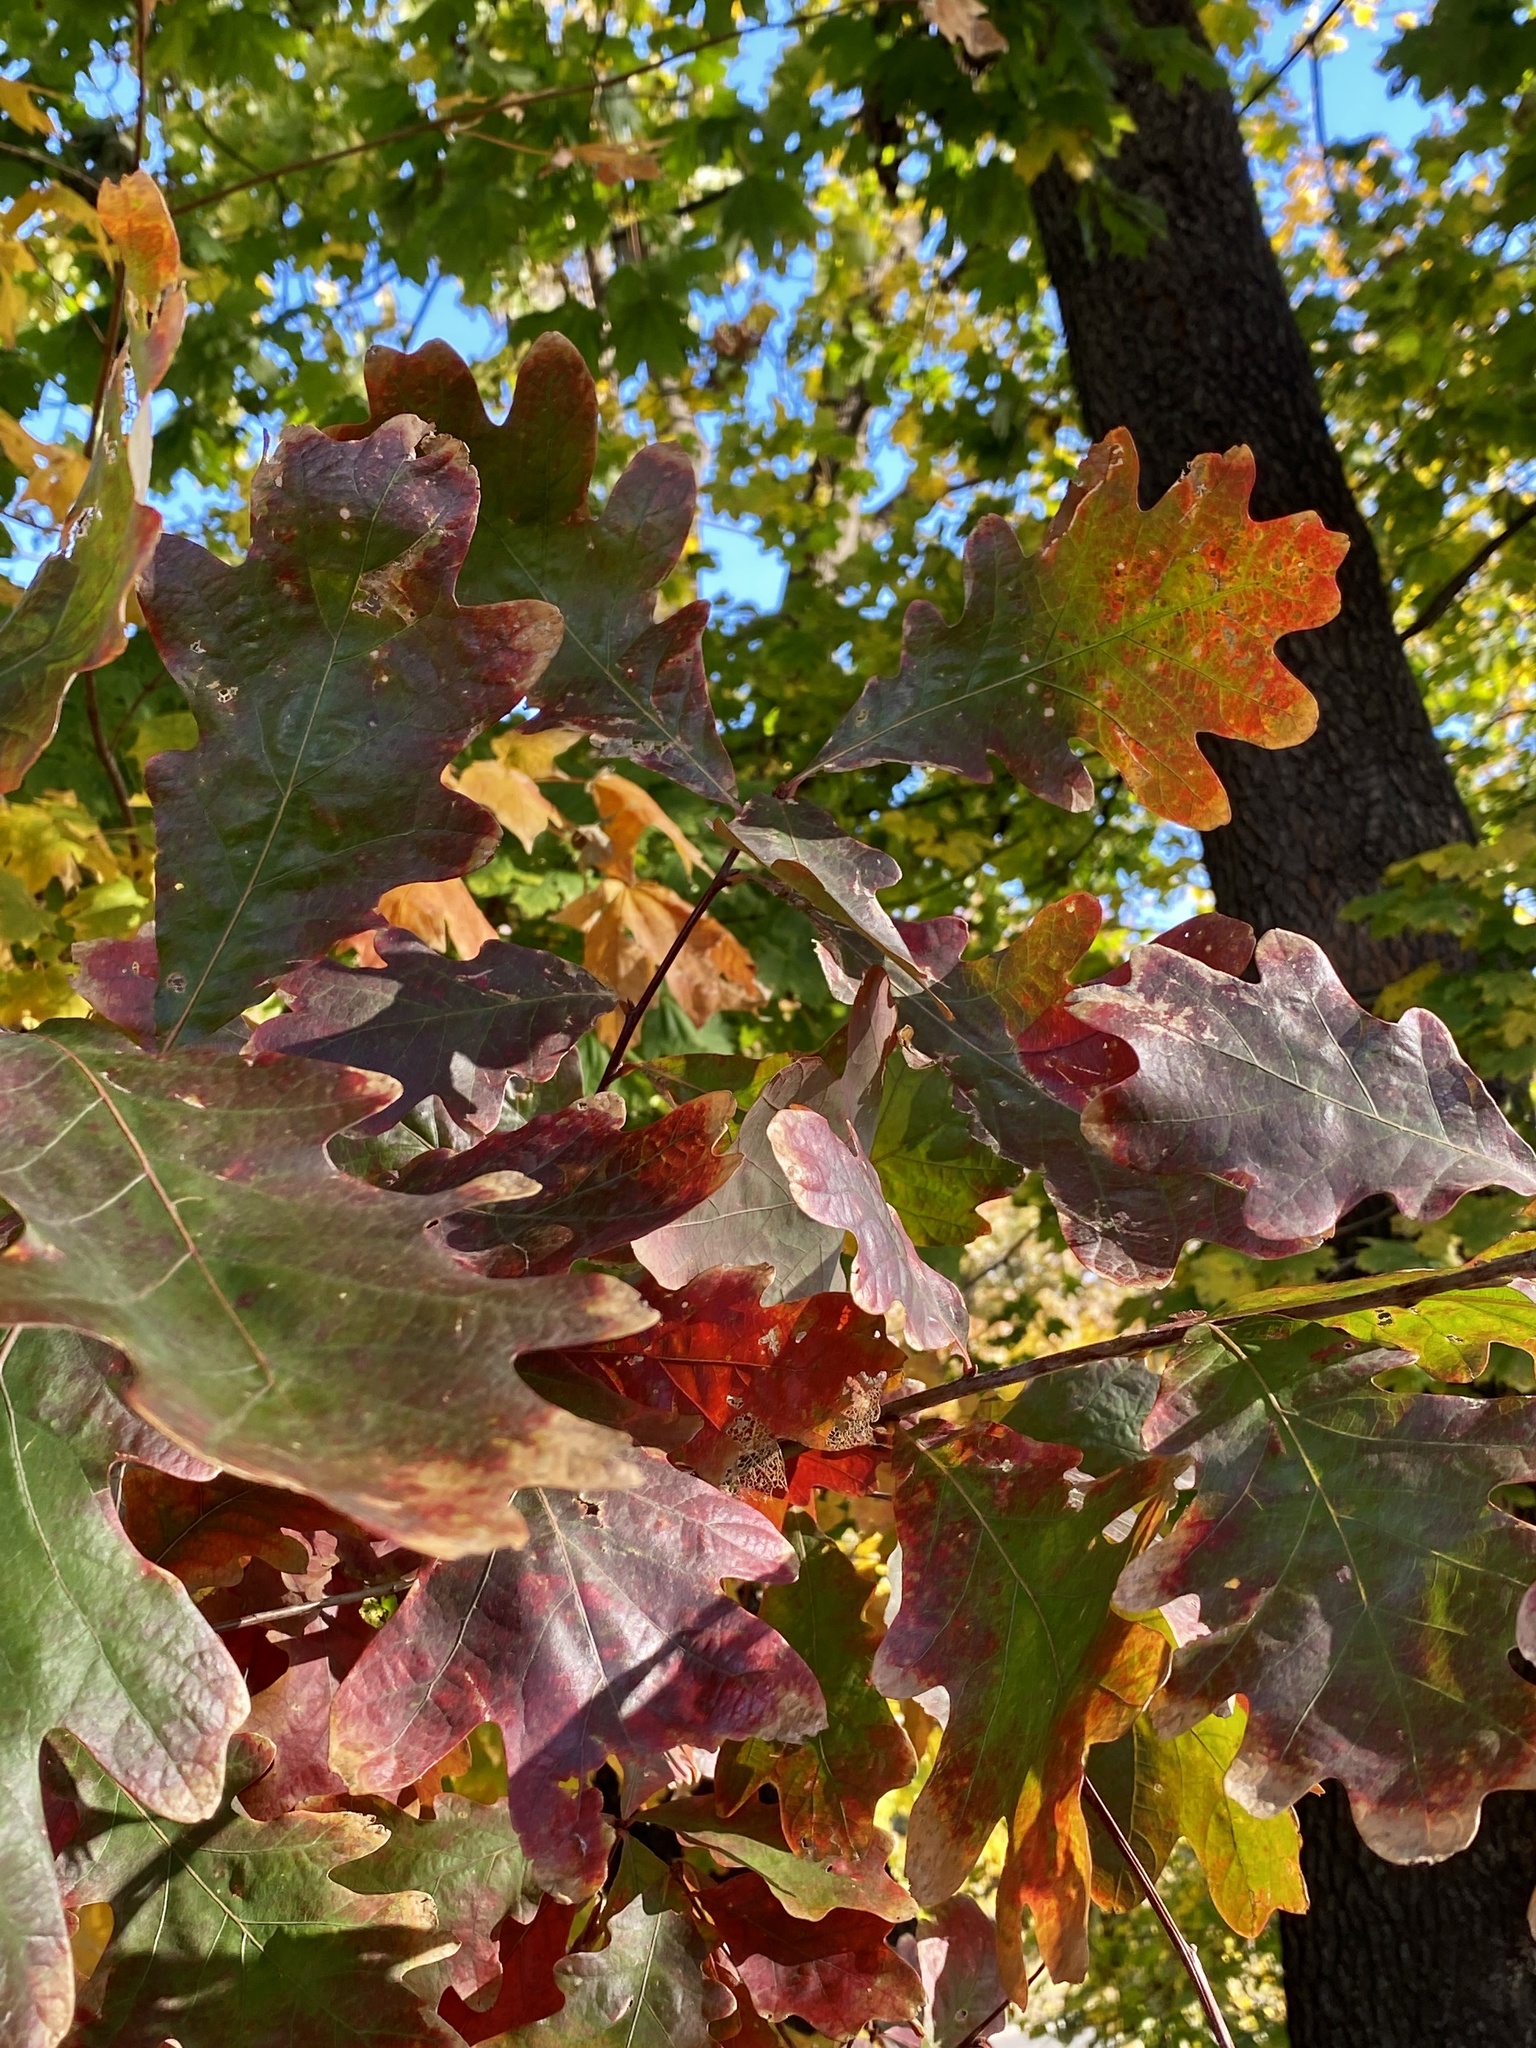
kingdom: Plantae
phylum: Tracheophyta
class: Magnoliopsida
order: Fagales
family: Fagaceae
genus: Quercus
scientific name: Quercus alba
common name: White oak
